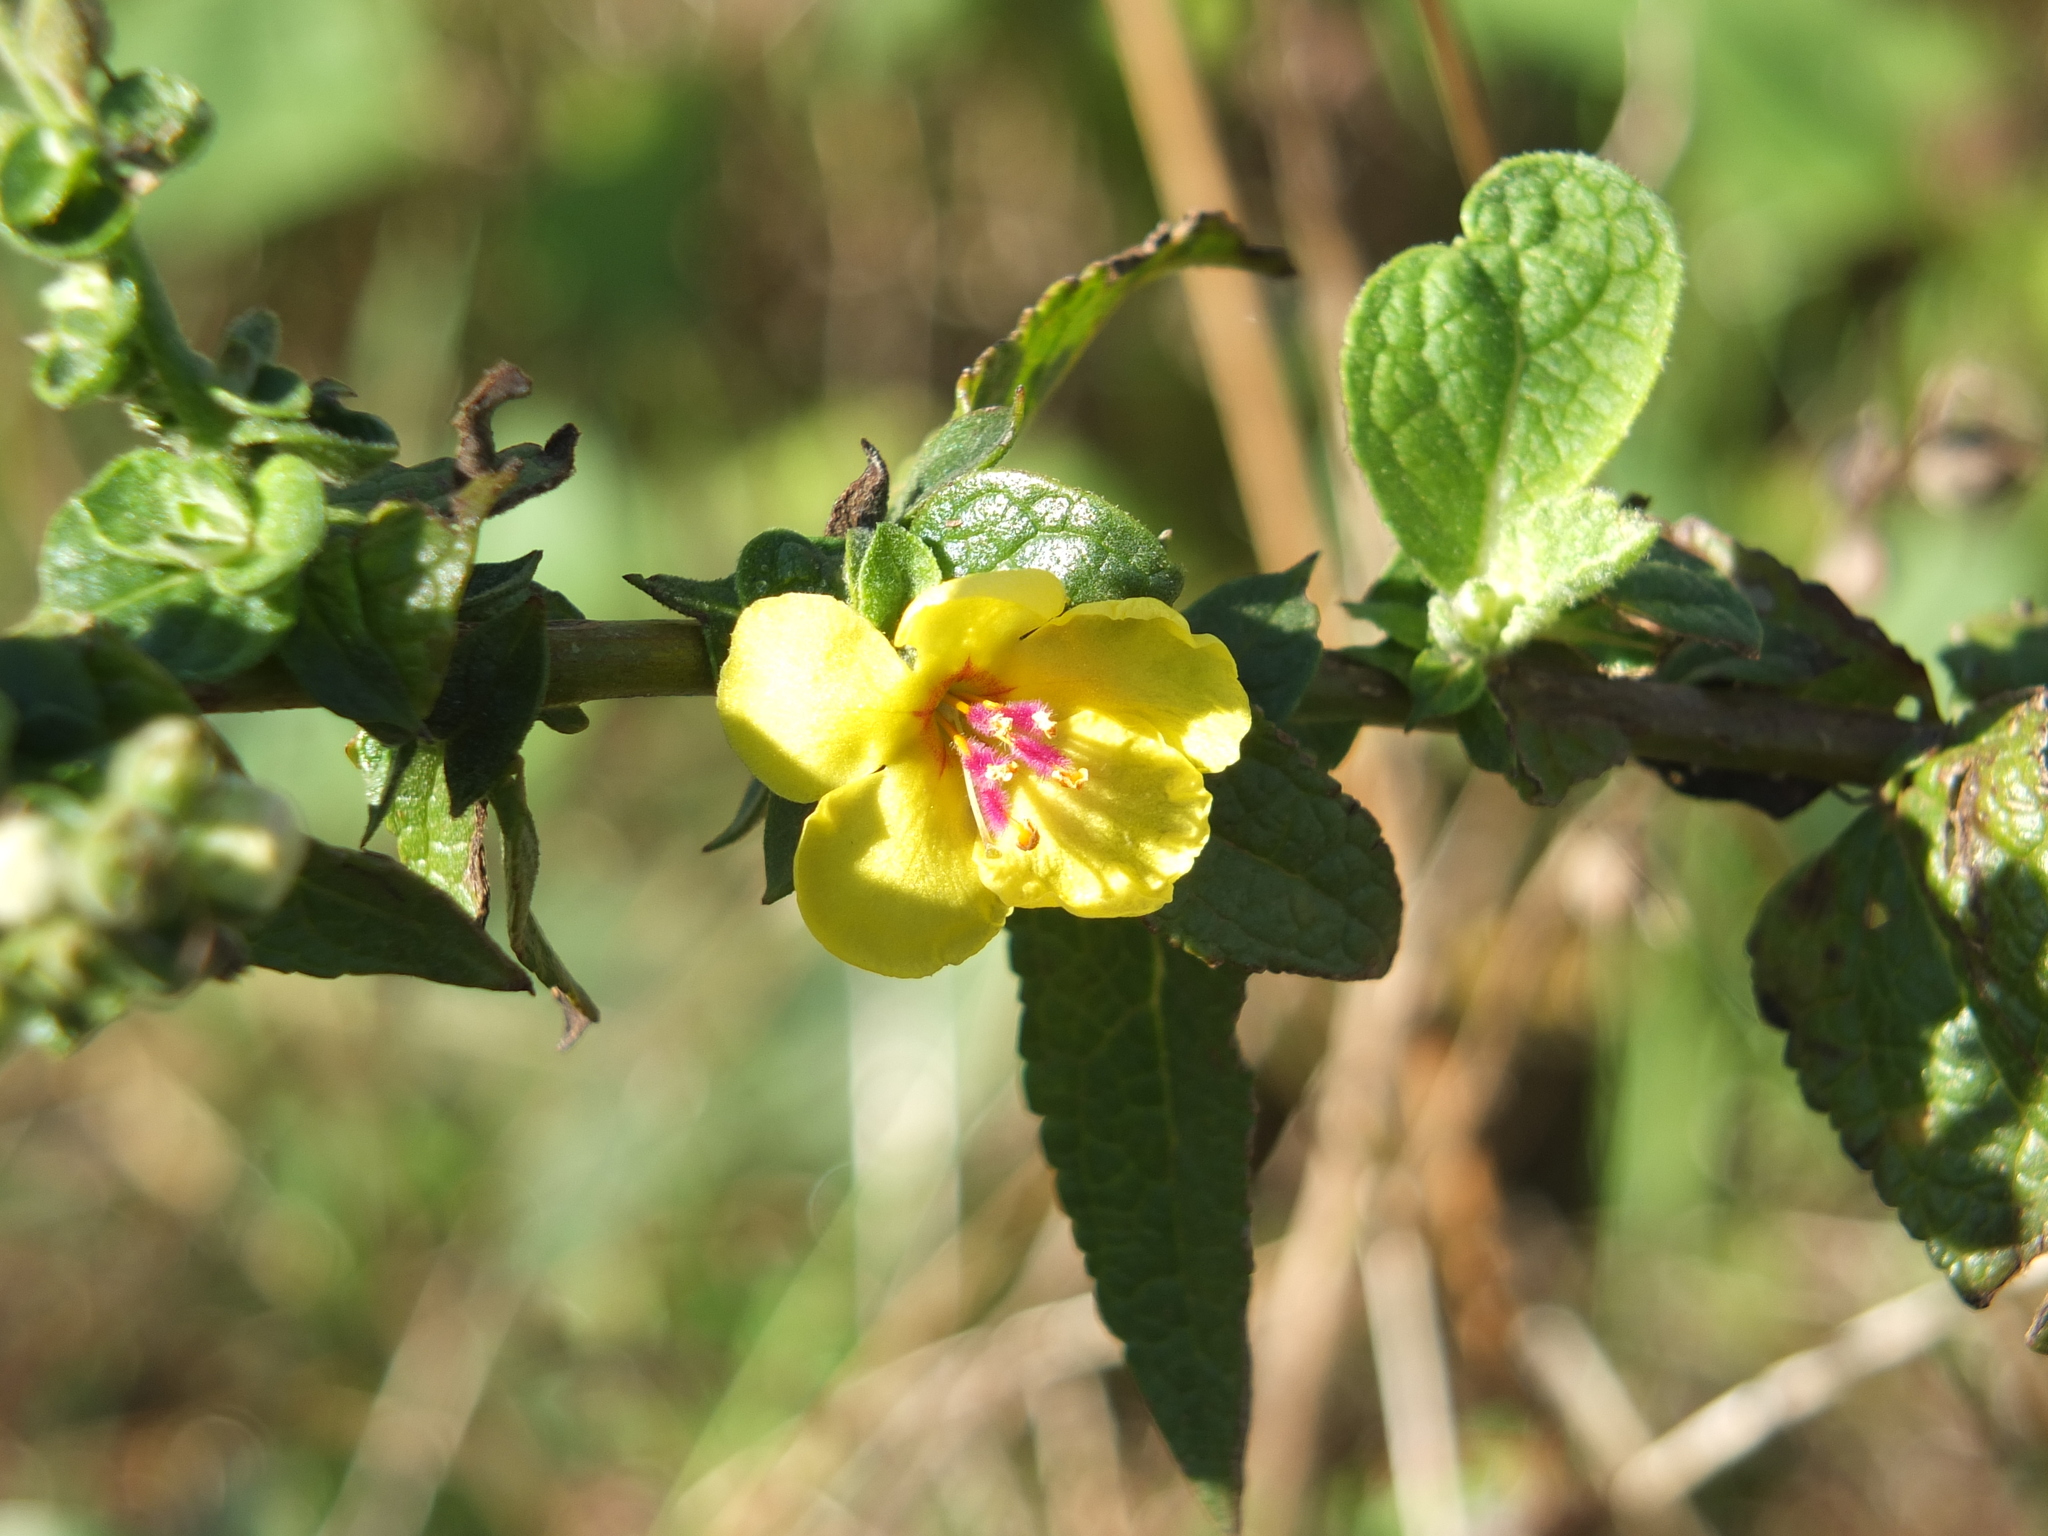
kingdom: Plantae
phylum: Tracheophyta
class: Magnoliopsida
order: Lamiales
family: Scrophulariaceae
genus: Verbascum
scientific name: Verbascum sinuatum
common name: Wavyleaf mullein
